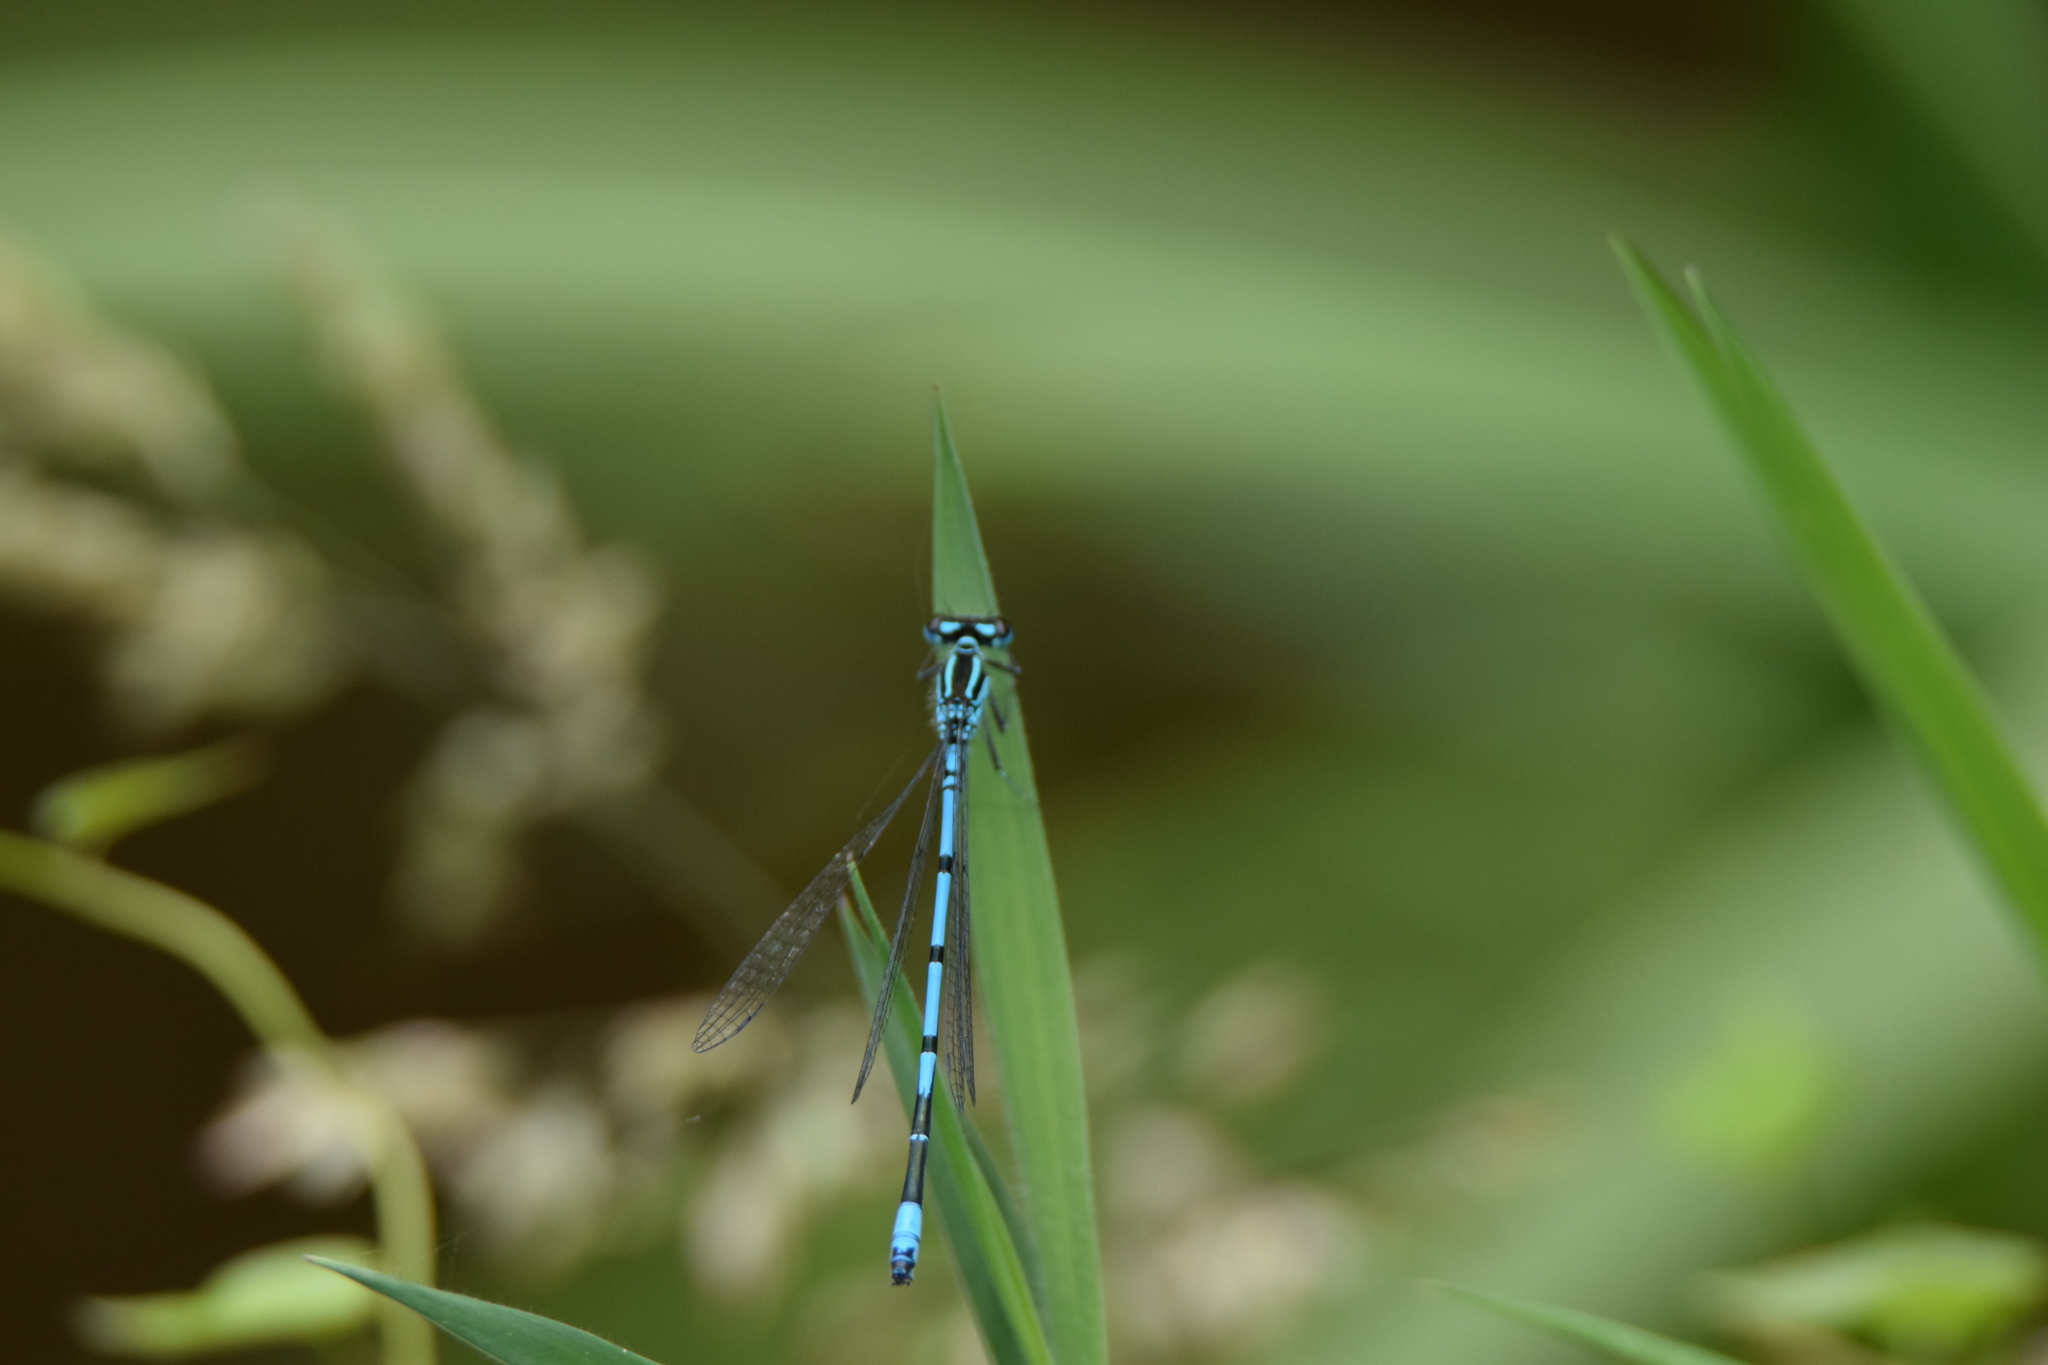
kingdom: Animalia
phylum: Arthropoda
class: Insecta
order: Odonata
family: Coenagrionidae
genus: Coenagrion
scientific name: Coenagrion puella
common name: Azure damselfly
